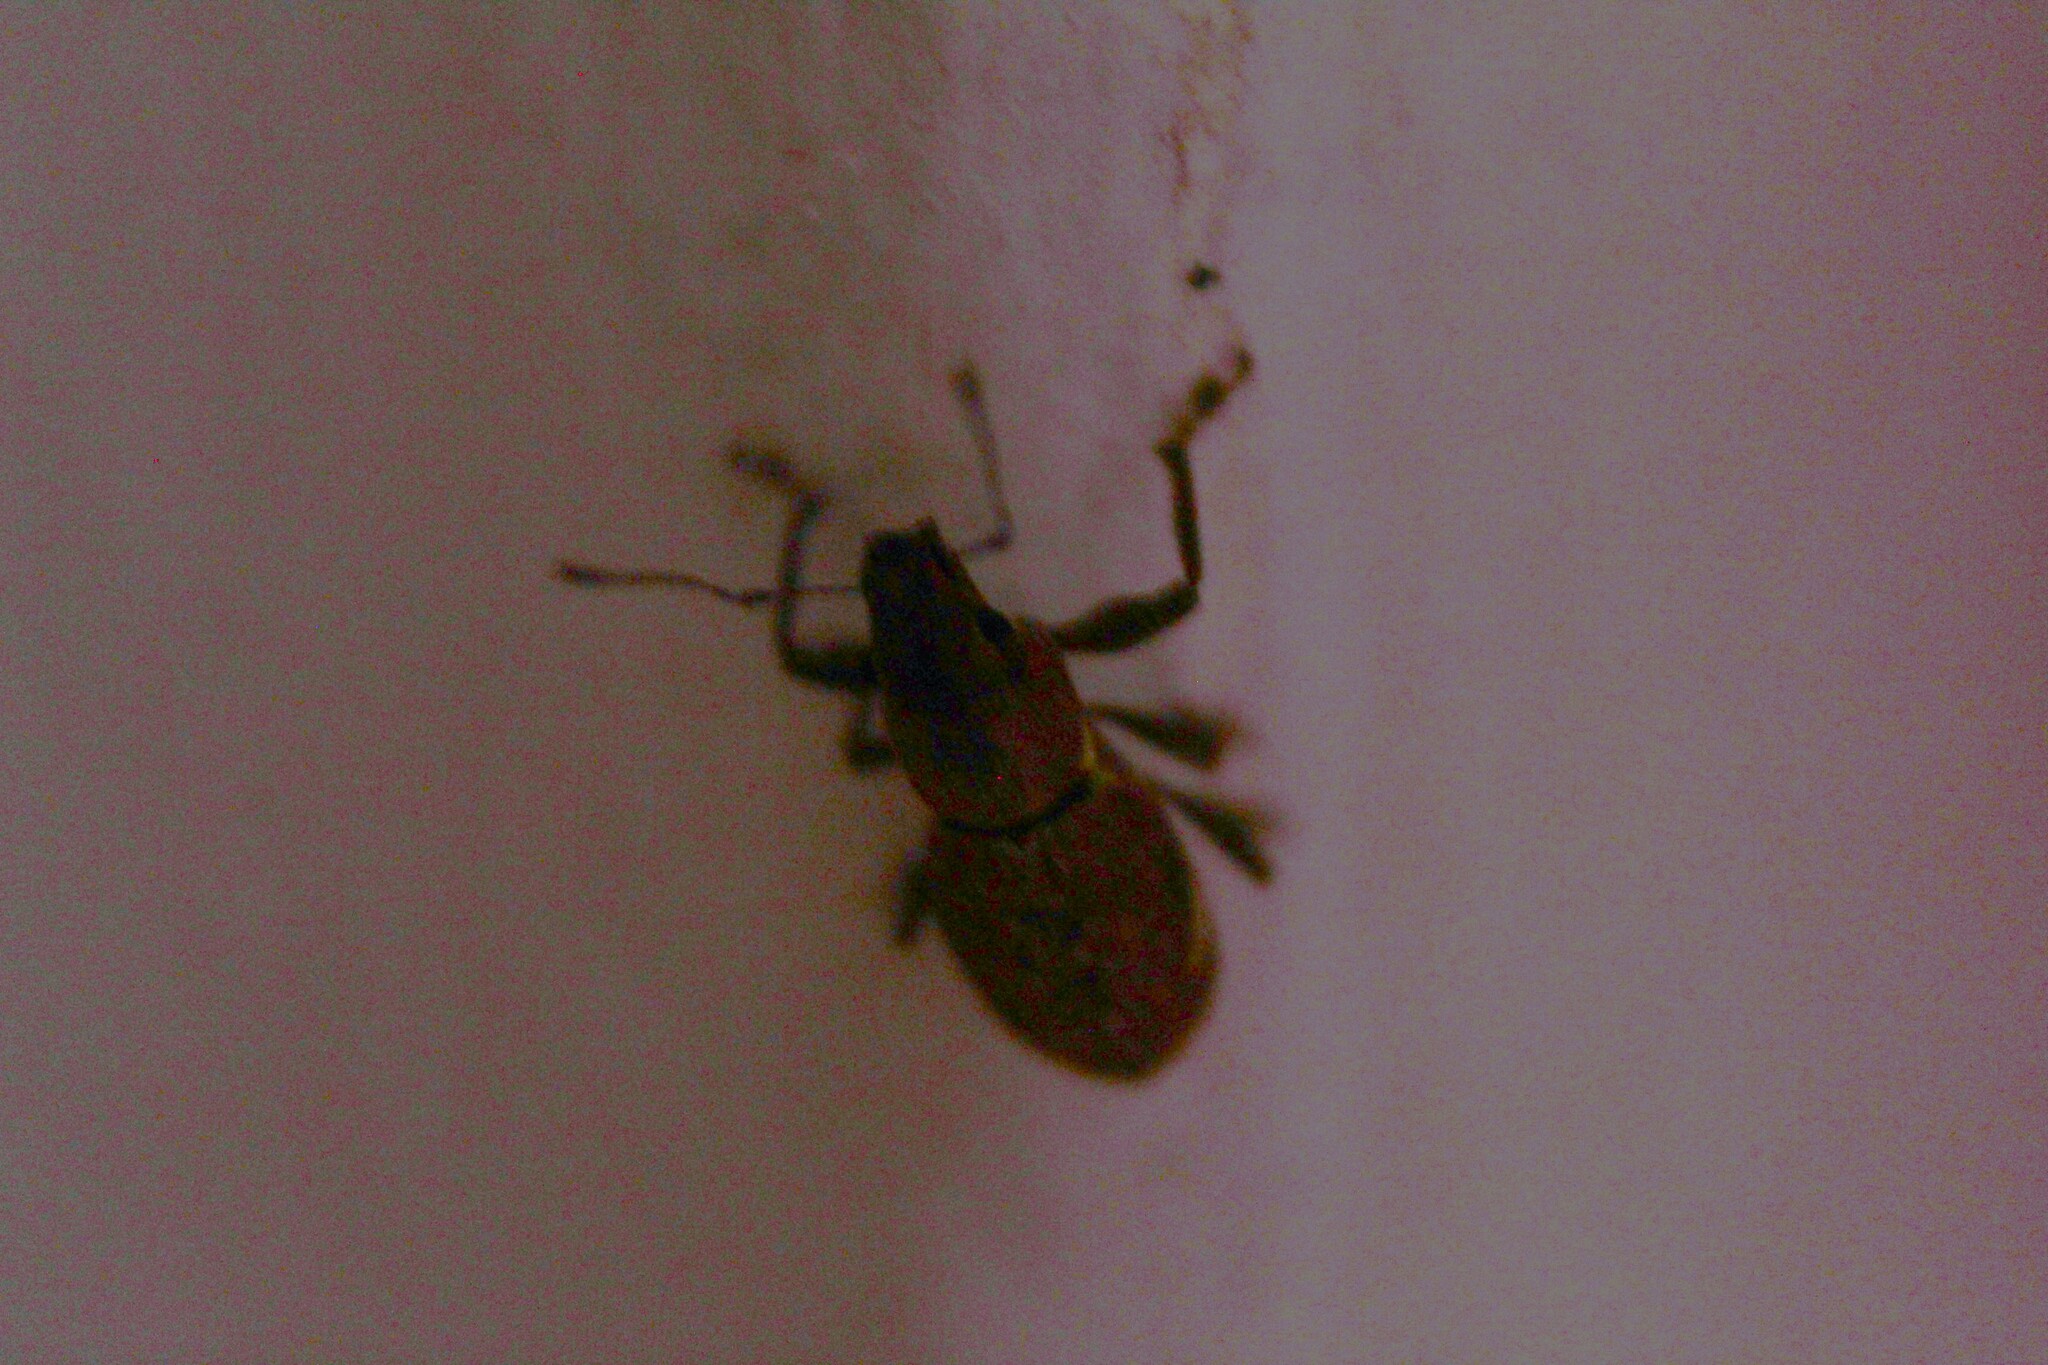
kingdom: Animalia
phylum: Arthropoda
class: Insecta
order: Coleoptera
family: Curculionidae
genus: Naupactus
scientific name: Naupactus cervinus
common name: Fuller rose beetle
